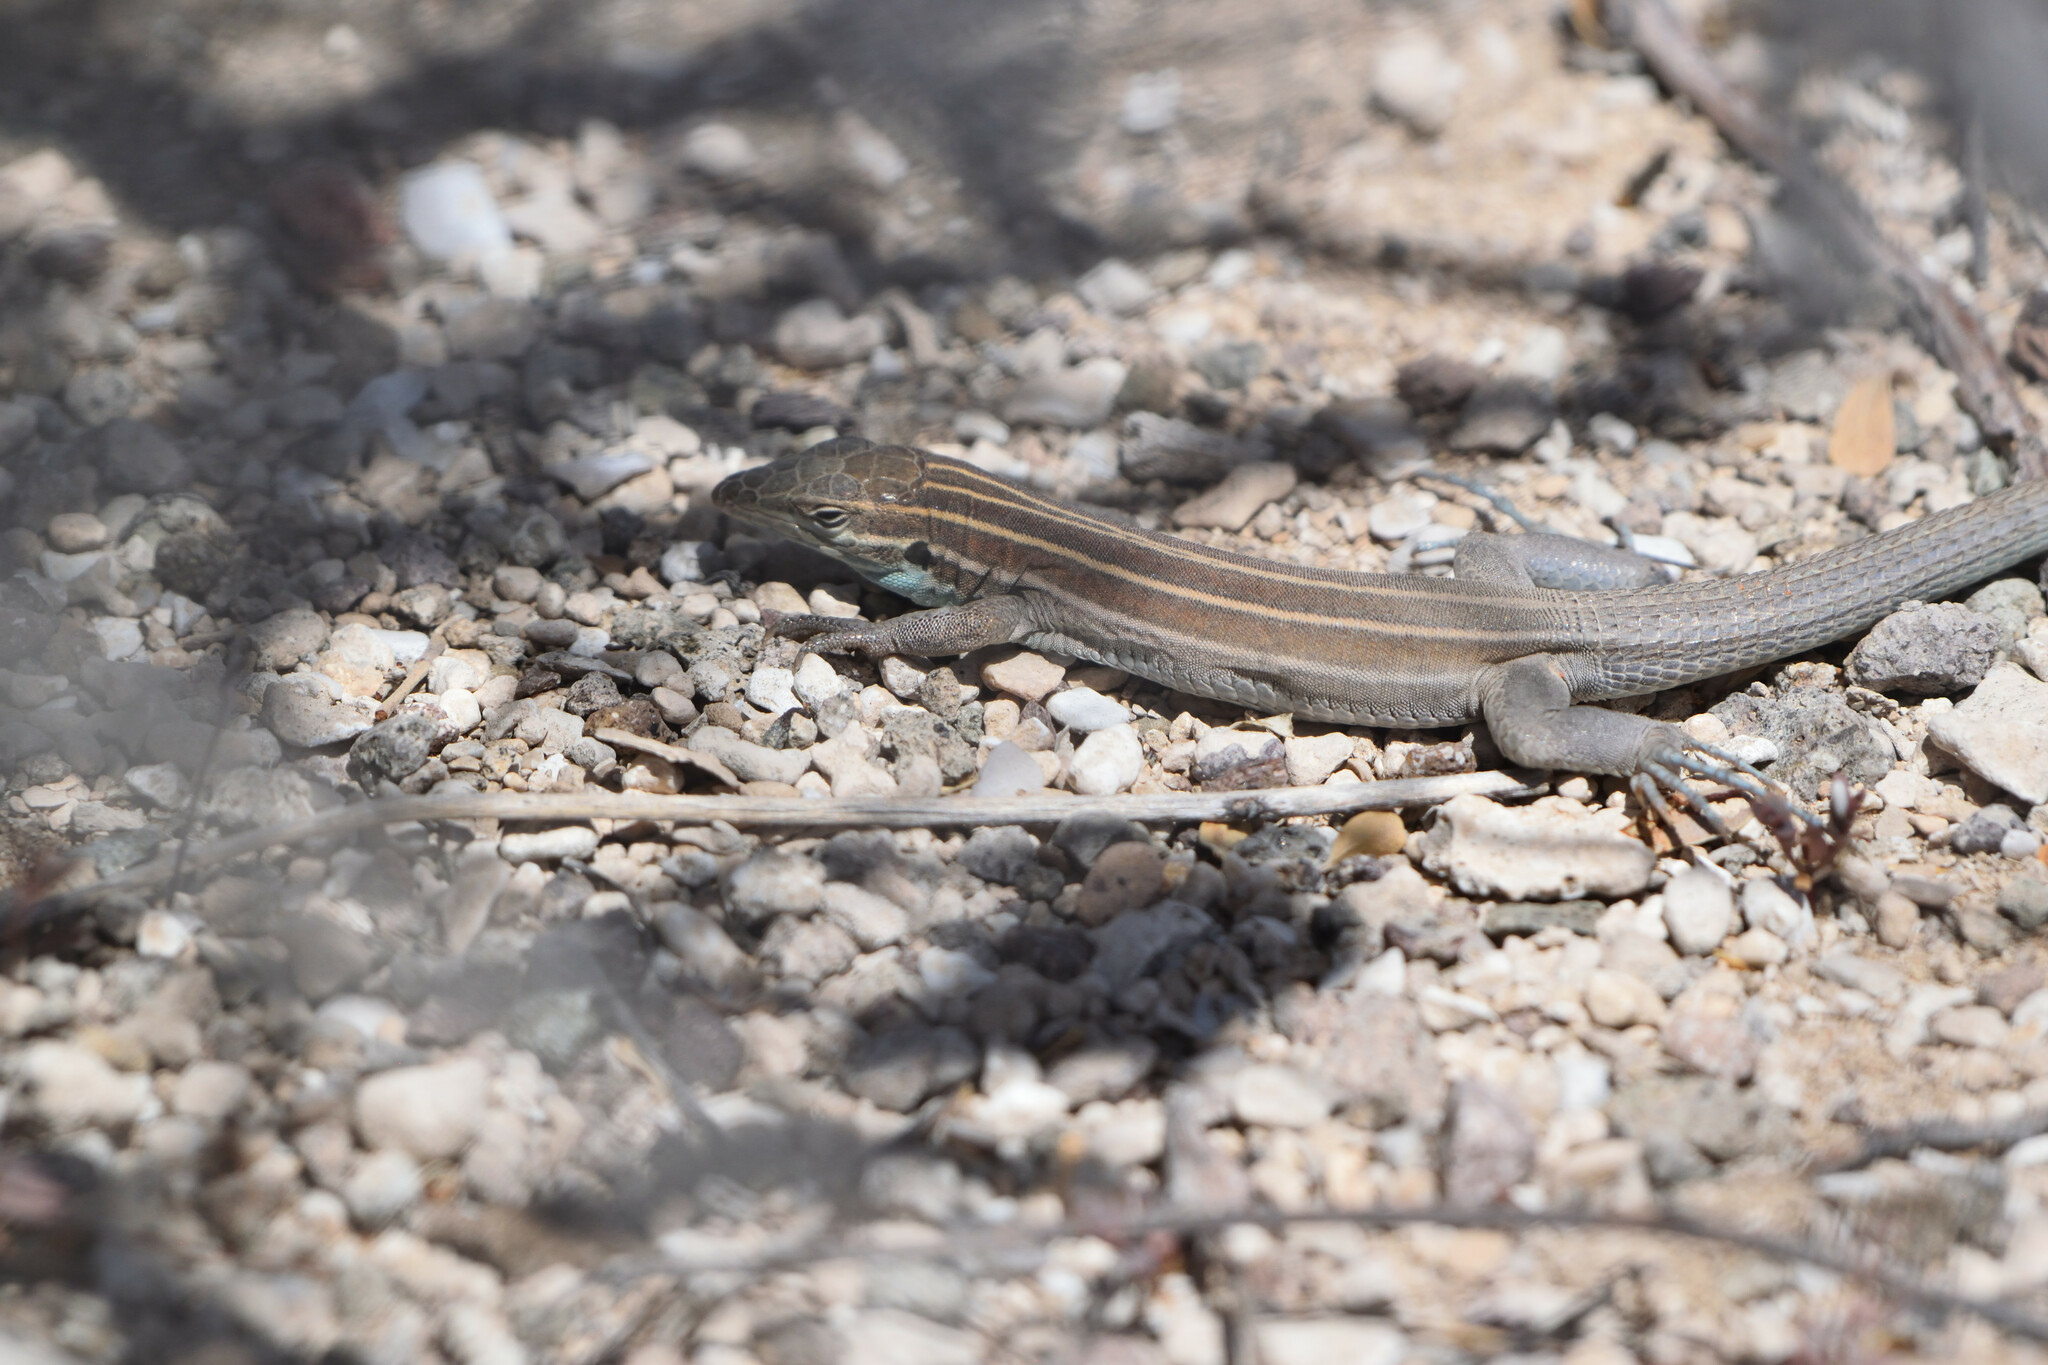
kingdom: Animalia
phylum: Chordata
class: Squamata
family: Teiidae
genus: Aspidoscelis
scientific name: Aspidoscelis carmenensis
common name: Carmen island whiptail
